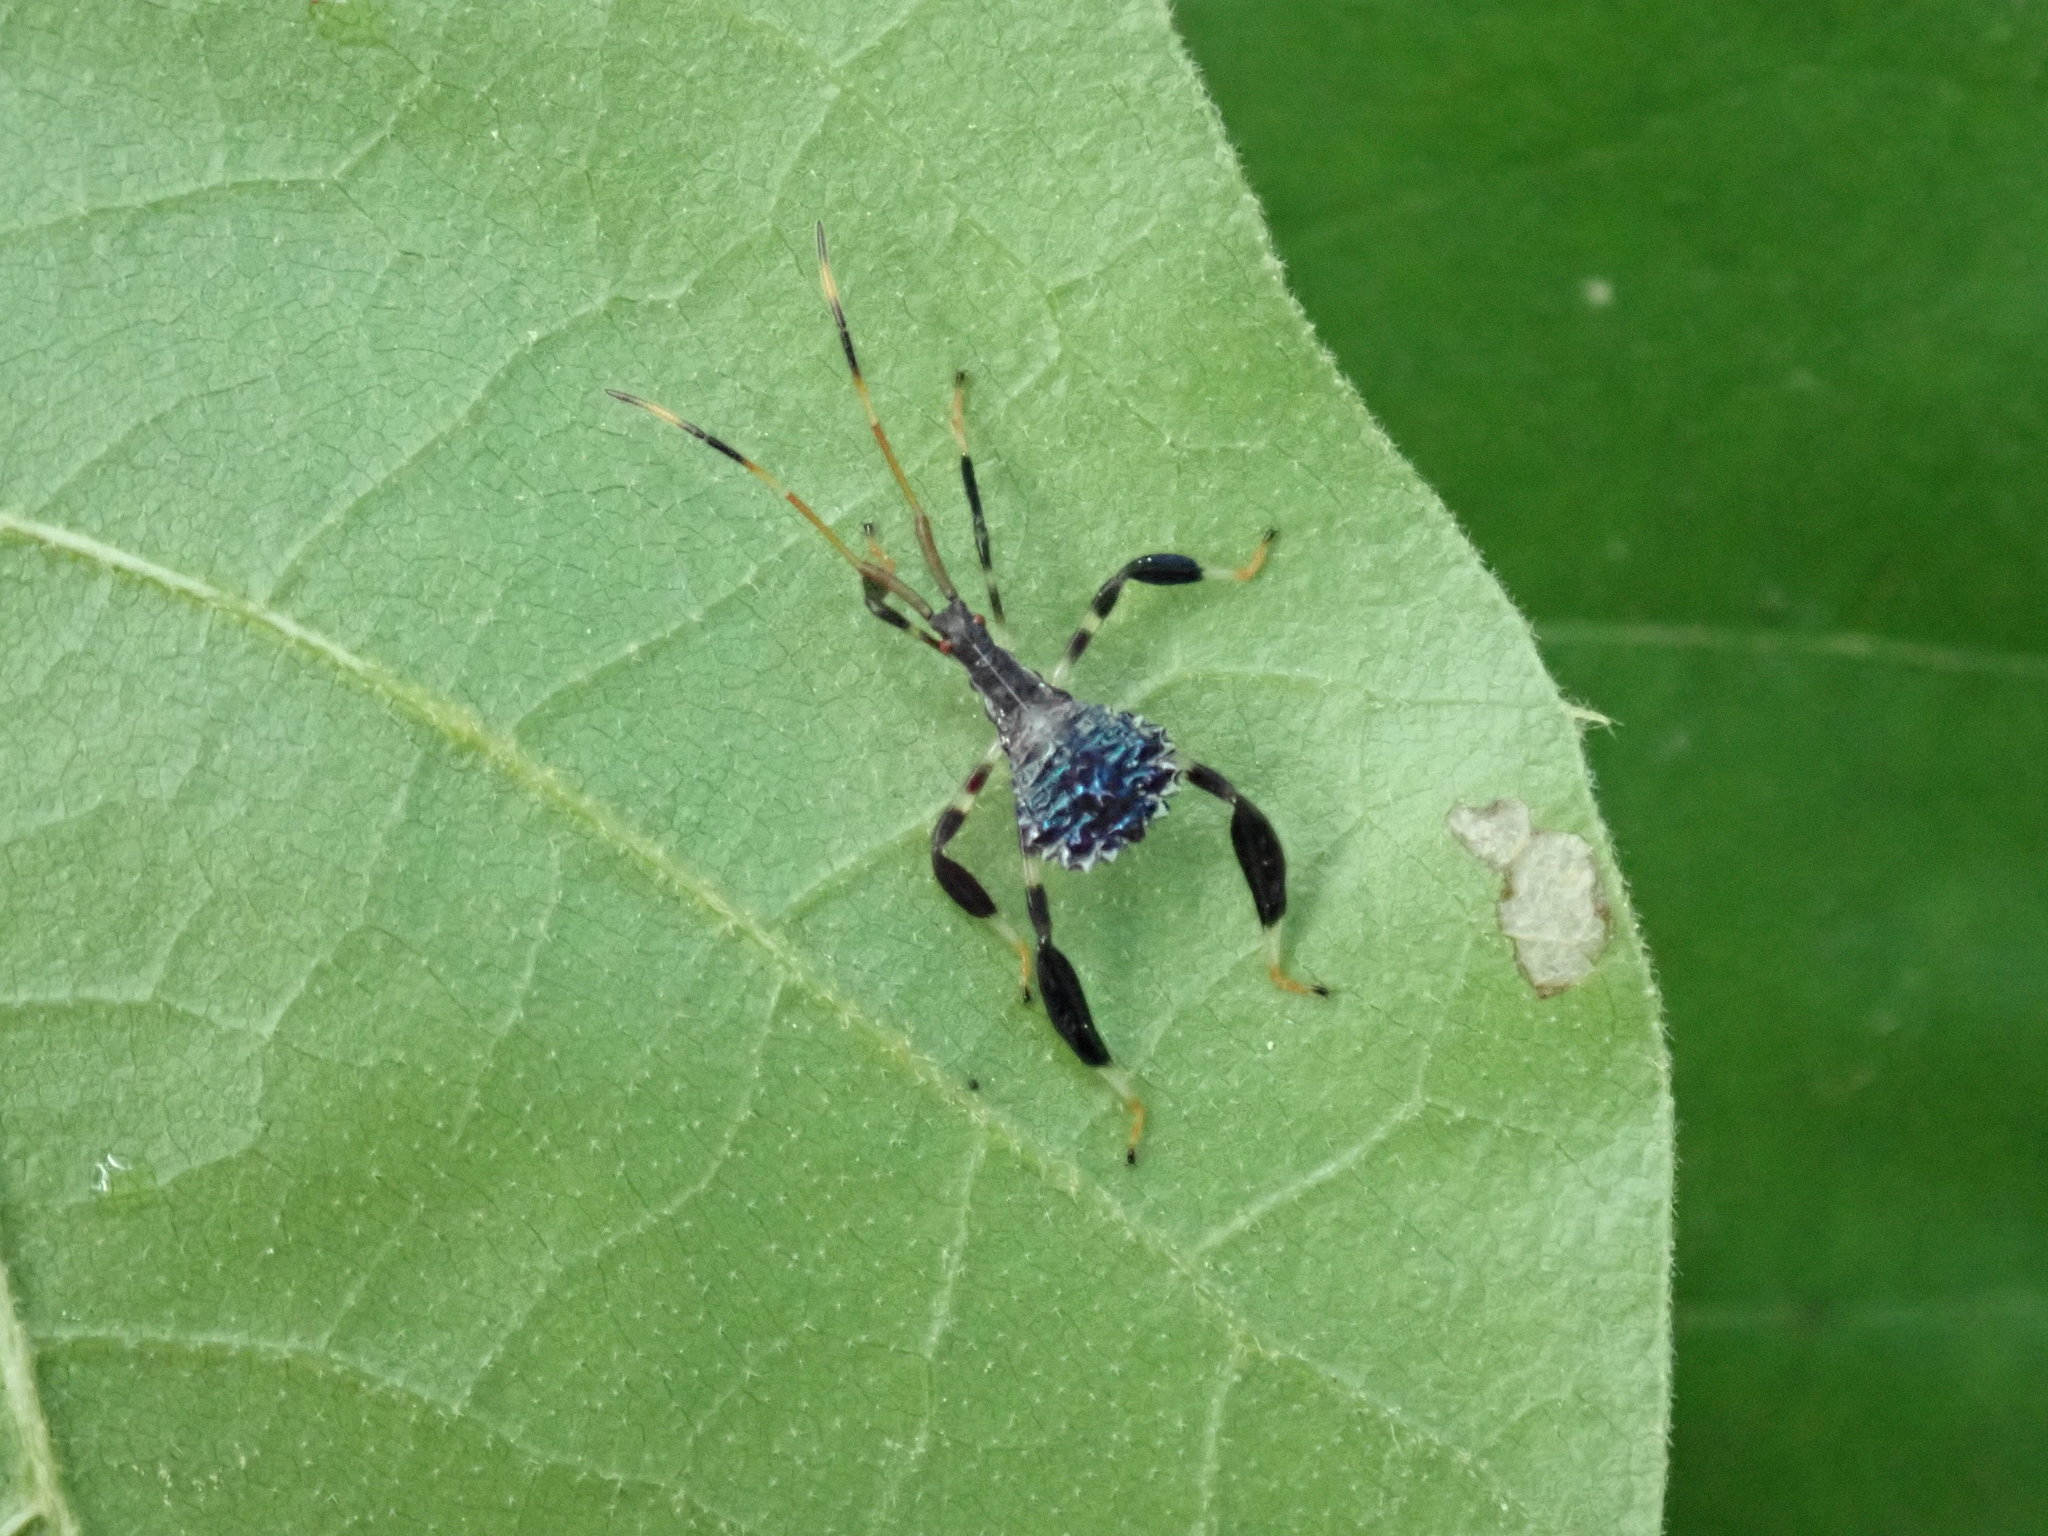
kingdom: Animalia
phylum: Arthropoda
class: Insecta
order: Hemiptera
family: Coreidae
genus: Acanthocephala
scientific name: Acanthocephala terminalis
